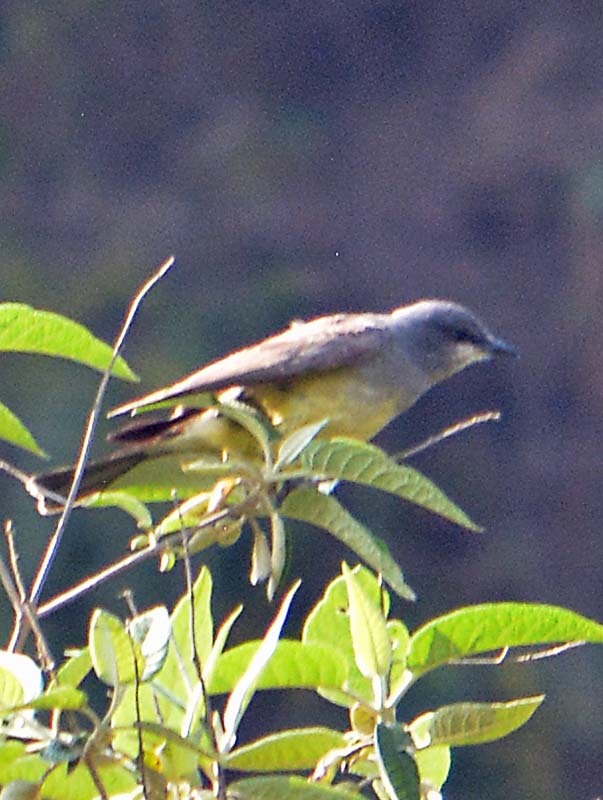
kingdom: Animalia
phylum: Chordata
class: Aves
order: Passeriformes
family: Tyrannidae
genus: Tyrannus
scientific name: Tyrannus vociferans
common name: Cassin's kingbird
